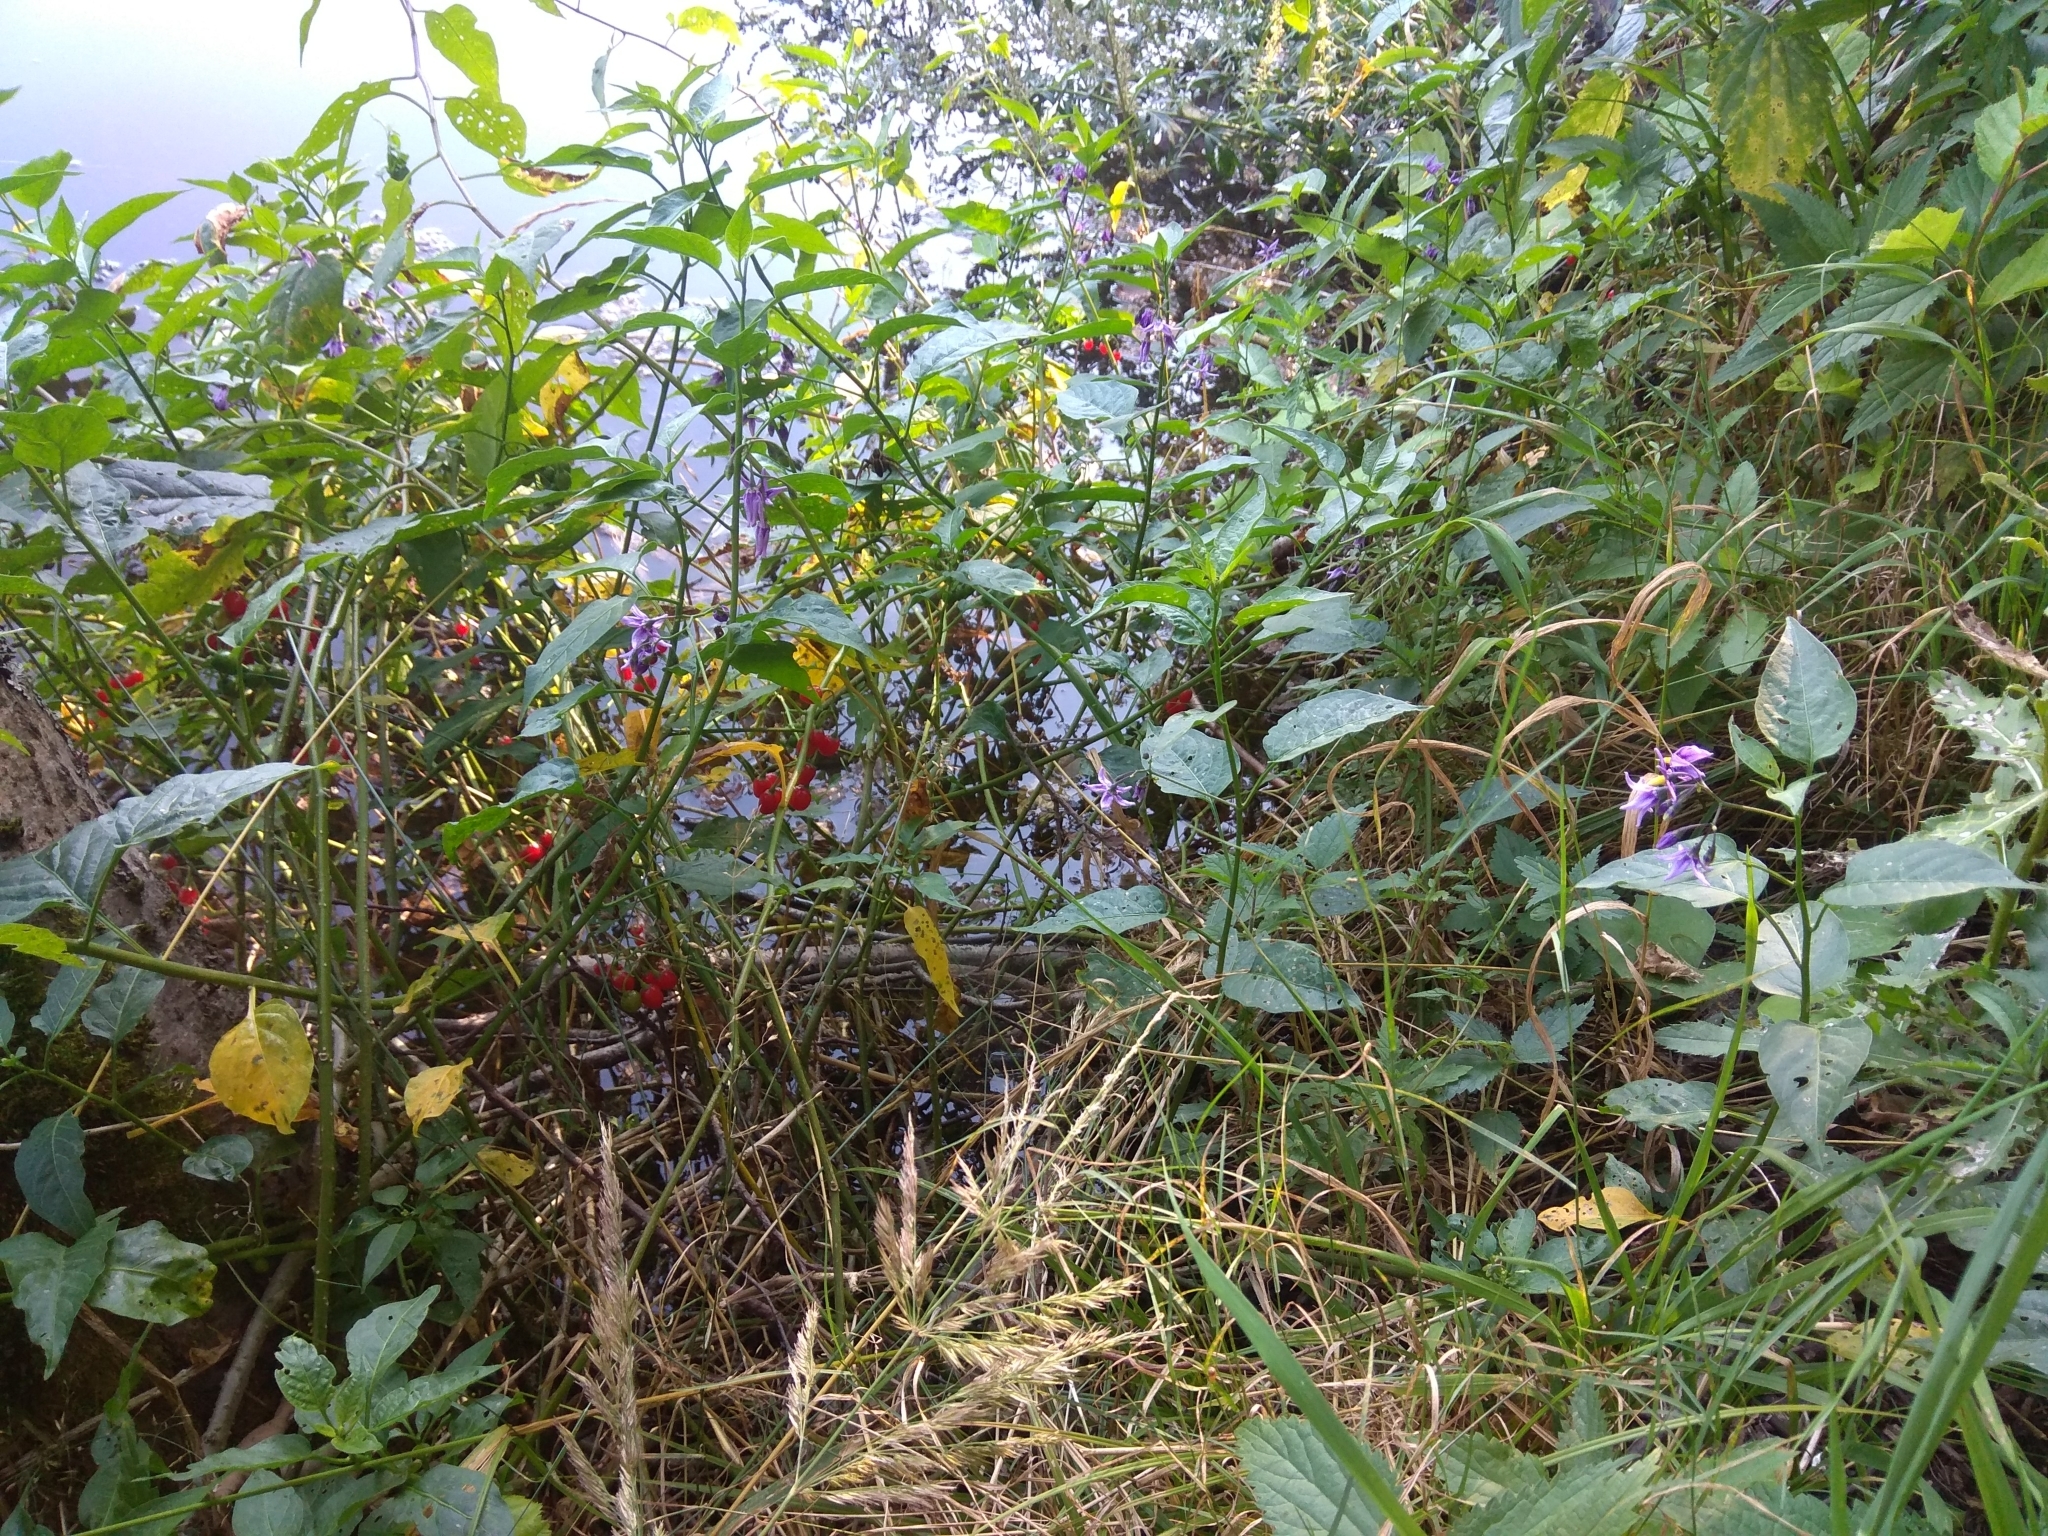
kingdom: Plantae
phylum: Tracheophyta
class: Magnoliopsida
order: Solanales
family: Solanaceae
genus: Solanum
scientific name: Solanum dulcamara
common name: Climbing nightshade
